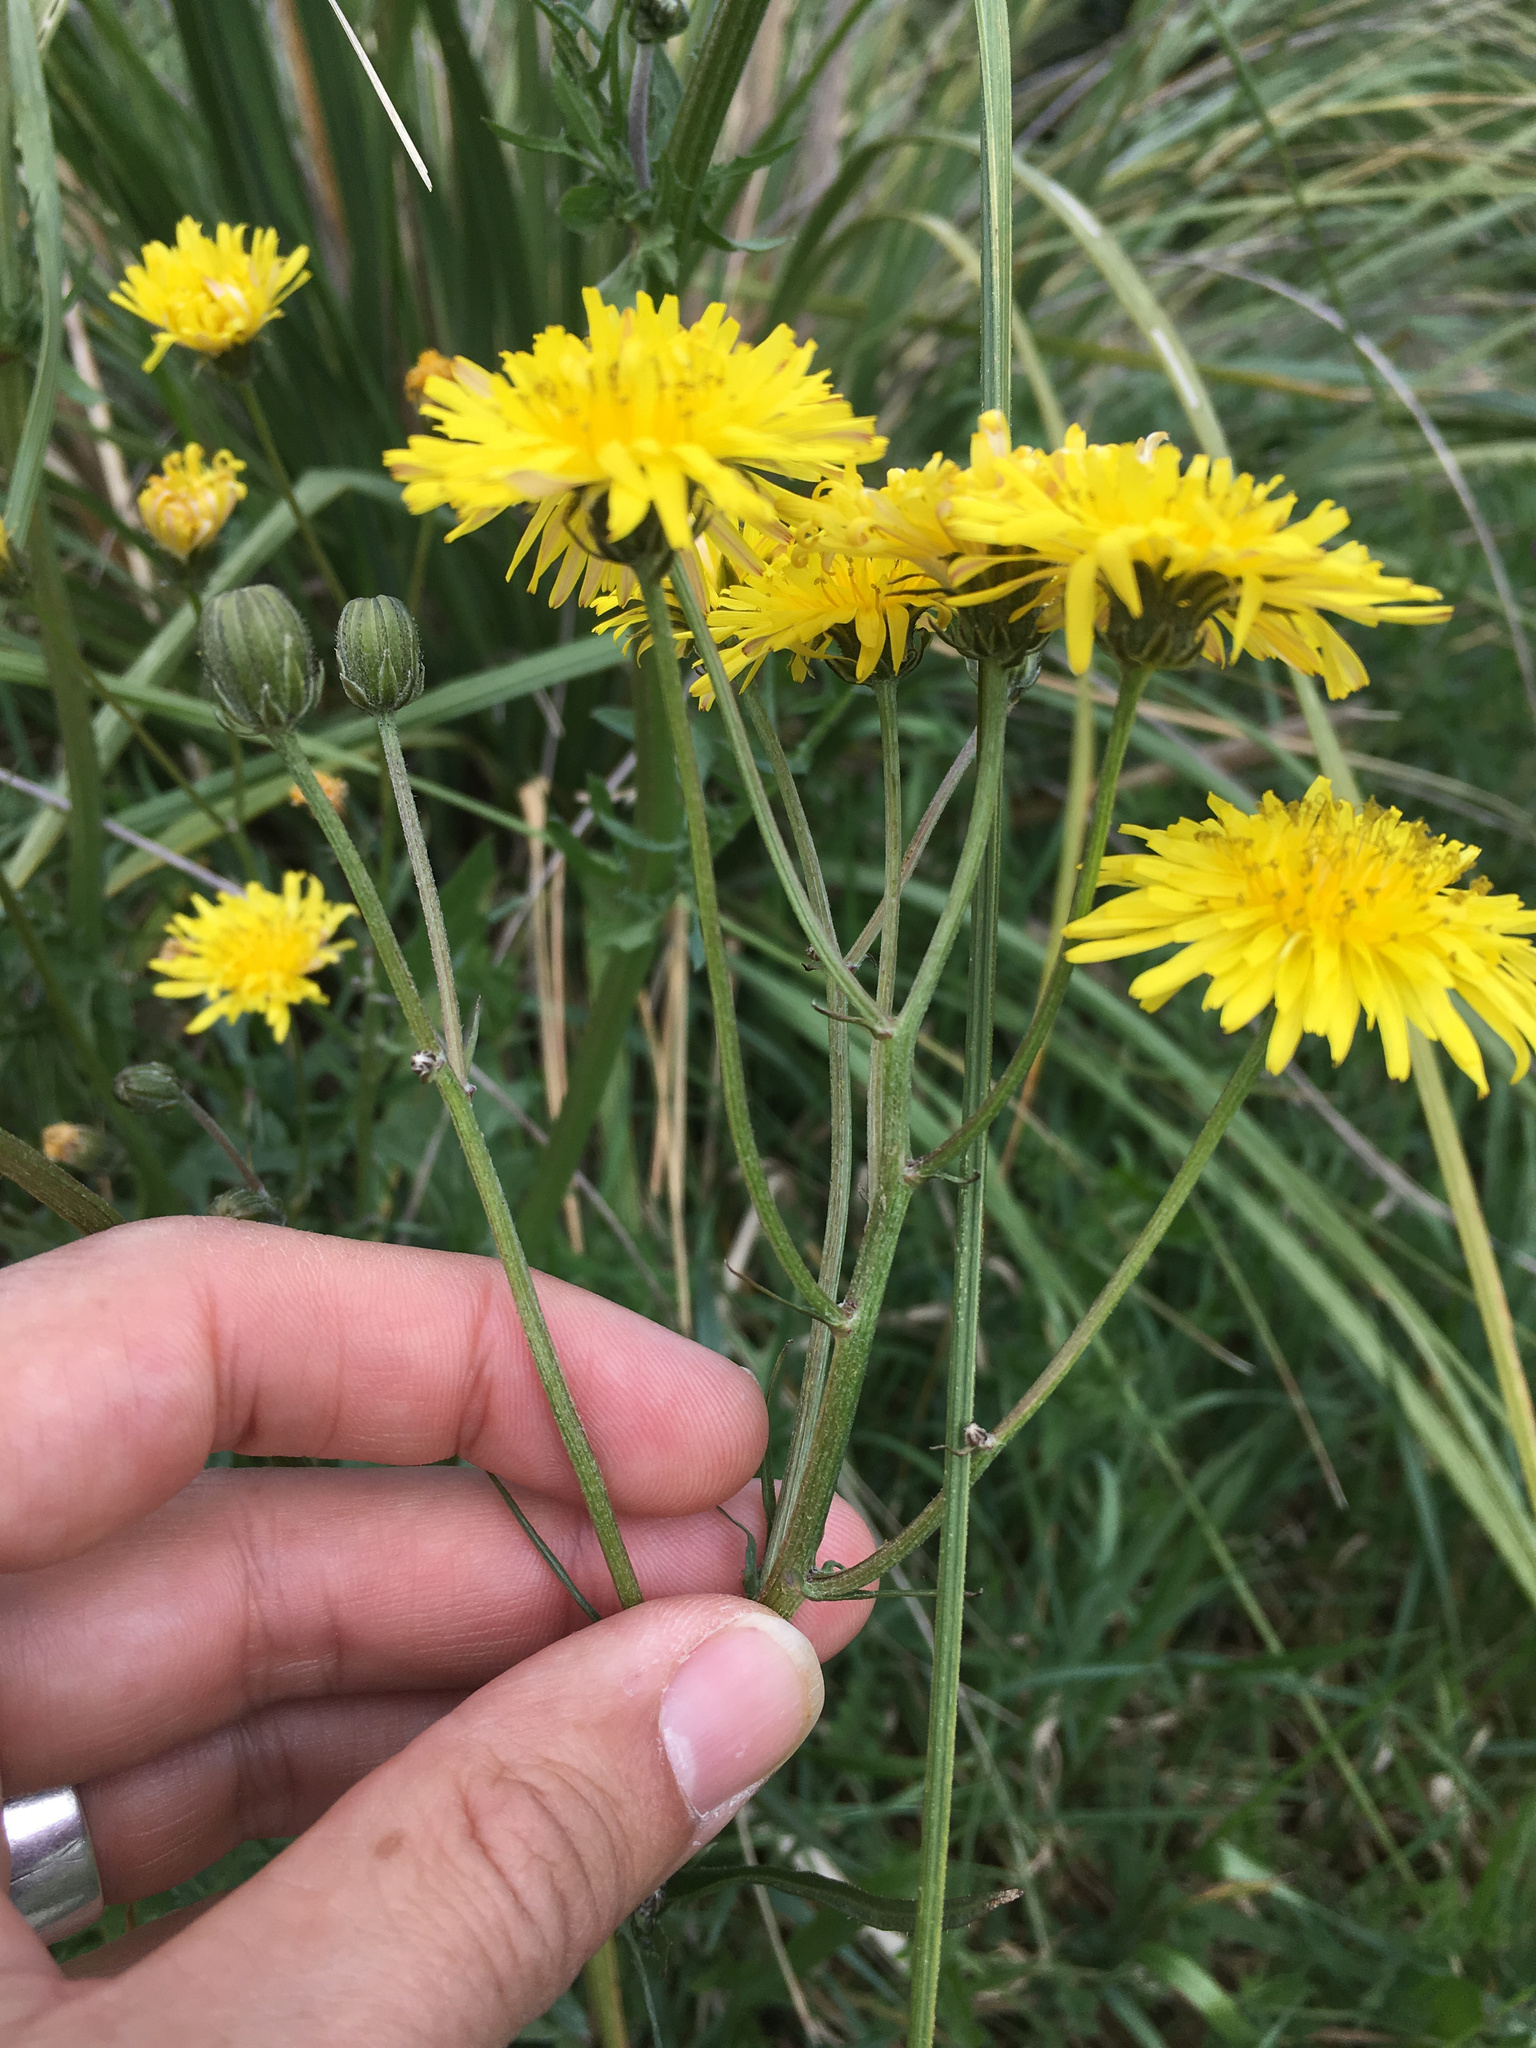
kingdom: Plantae
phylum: Tracheophyta
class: Magnoliopsida
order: Asterales
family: Asteraceae
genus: Crepis
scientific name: Crepis vesicaria
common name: Beaked hawksbeard
